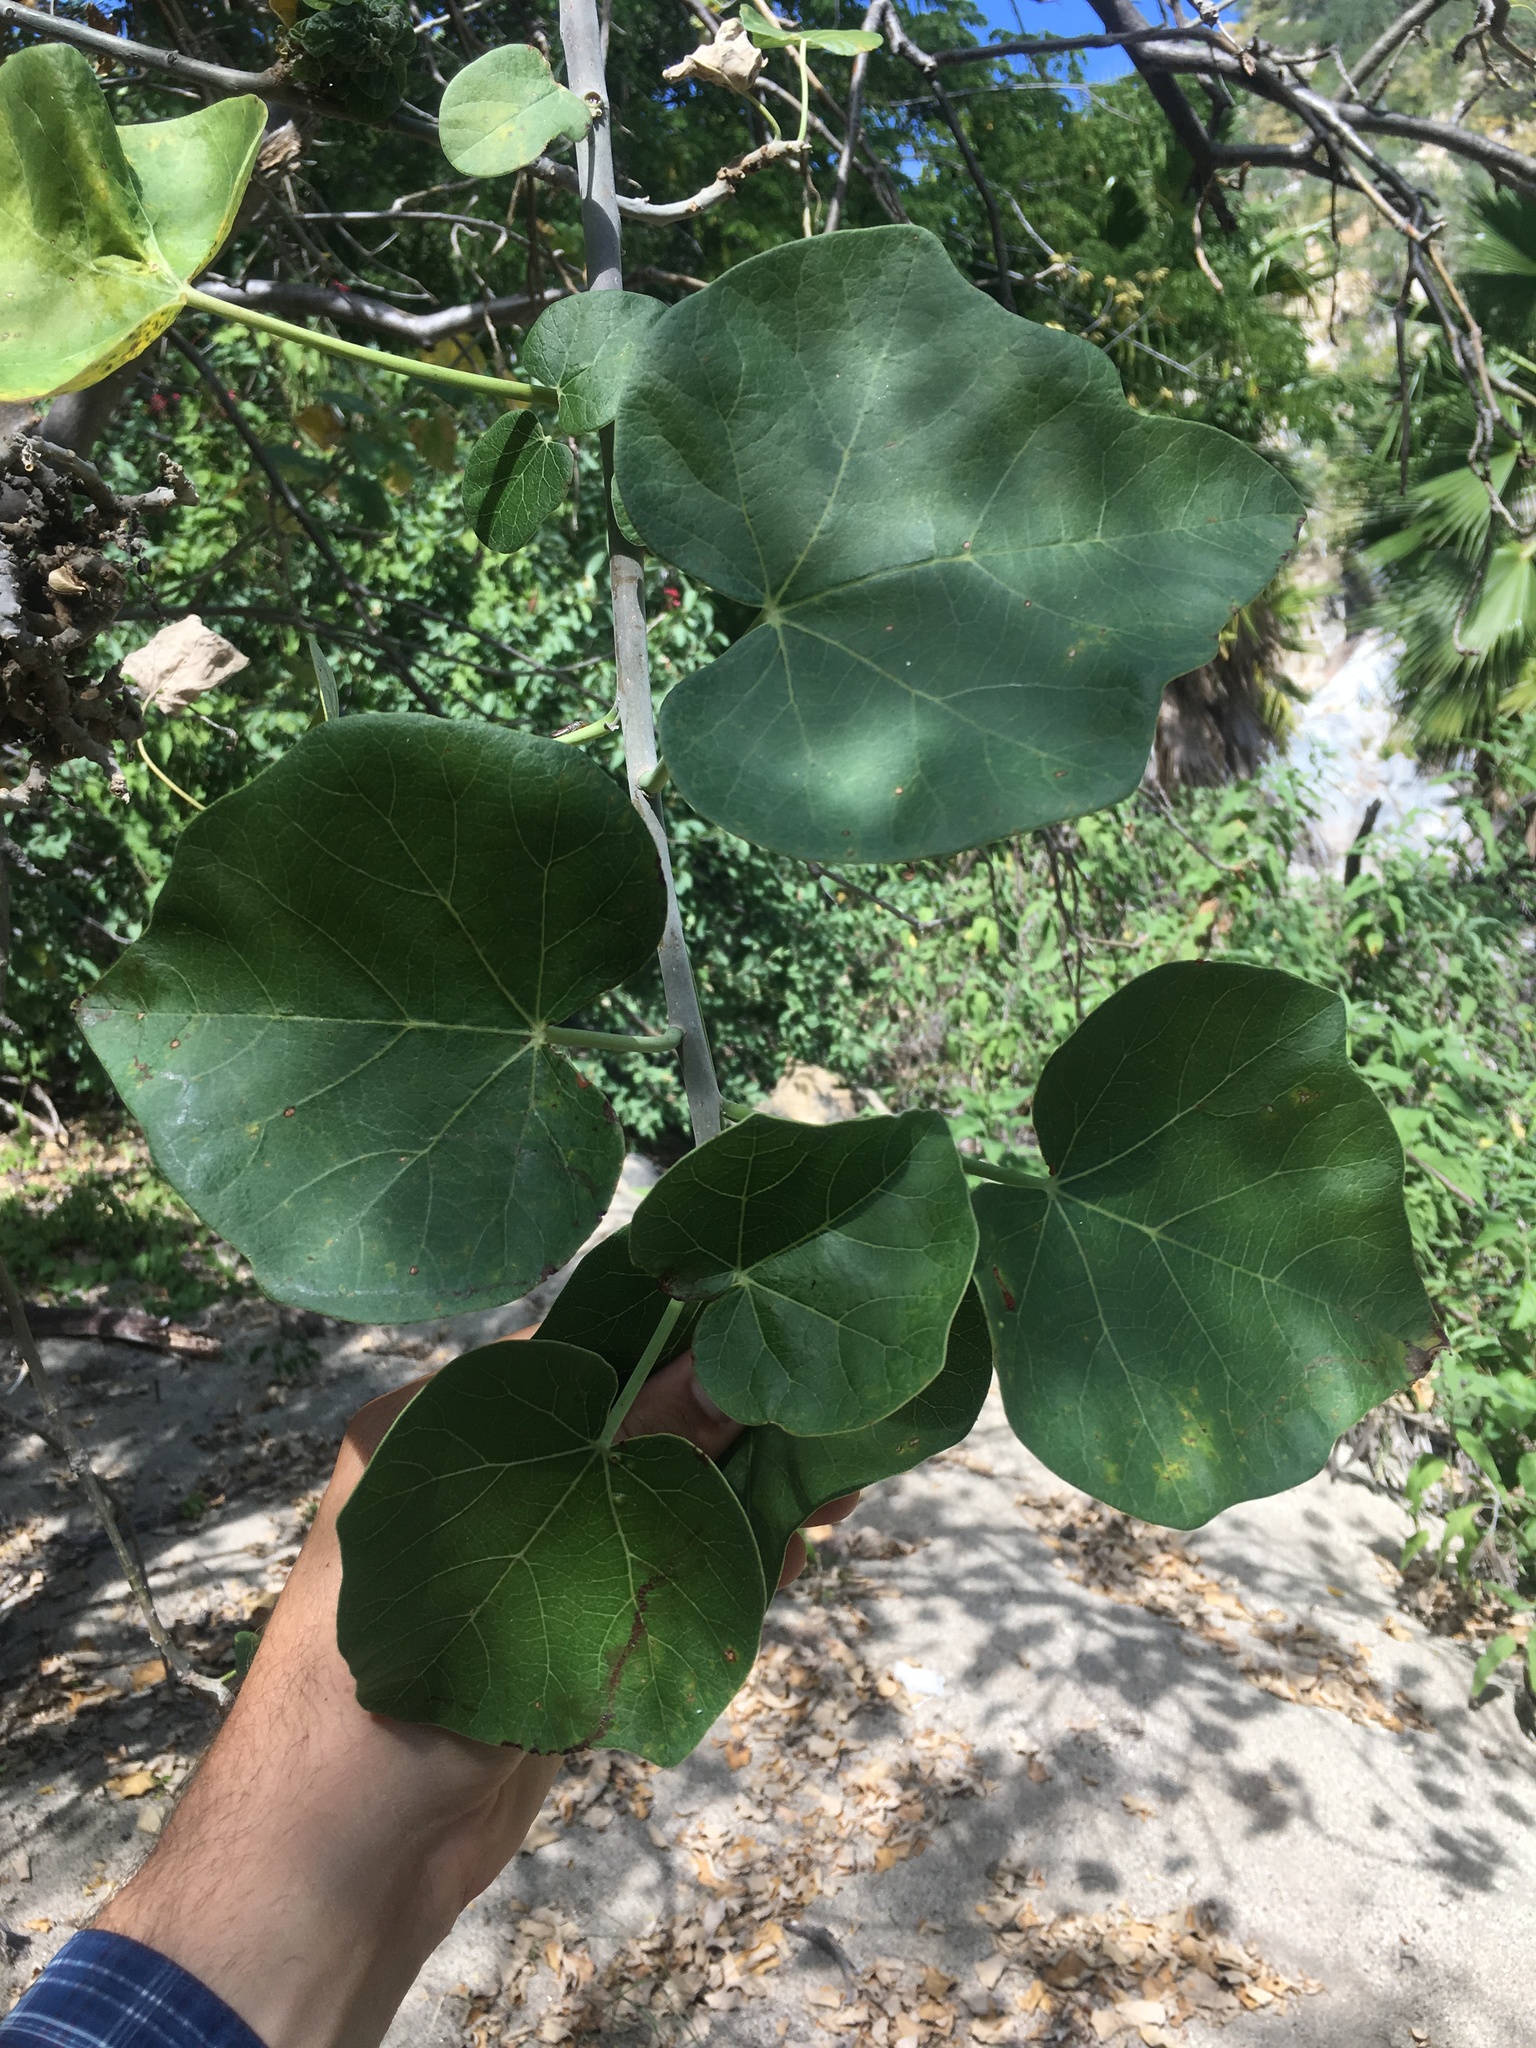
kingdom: Plantae
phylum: Tracheophyta
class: Magnoliopsida
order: Malpighiales
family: Euphorbiaceae
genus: Jatropha
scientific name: Jatropha cinerea
